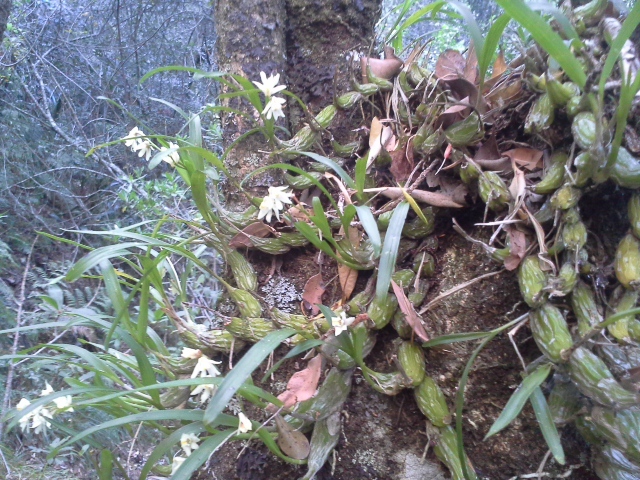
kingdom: Plantae
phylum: Tracheophyta
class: Liliopsida
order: Asparagales
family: Orchidaceae
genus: Polystachya
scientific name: Polystachya ottoniana
